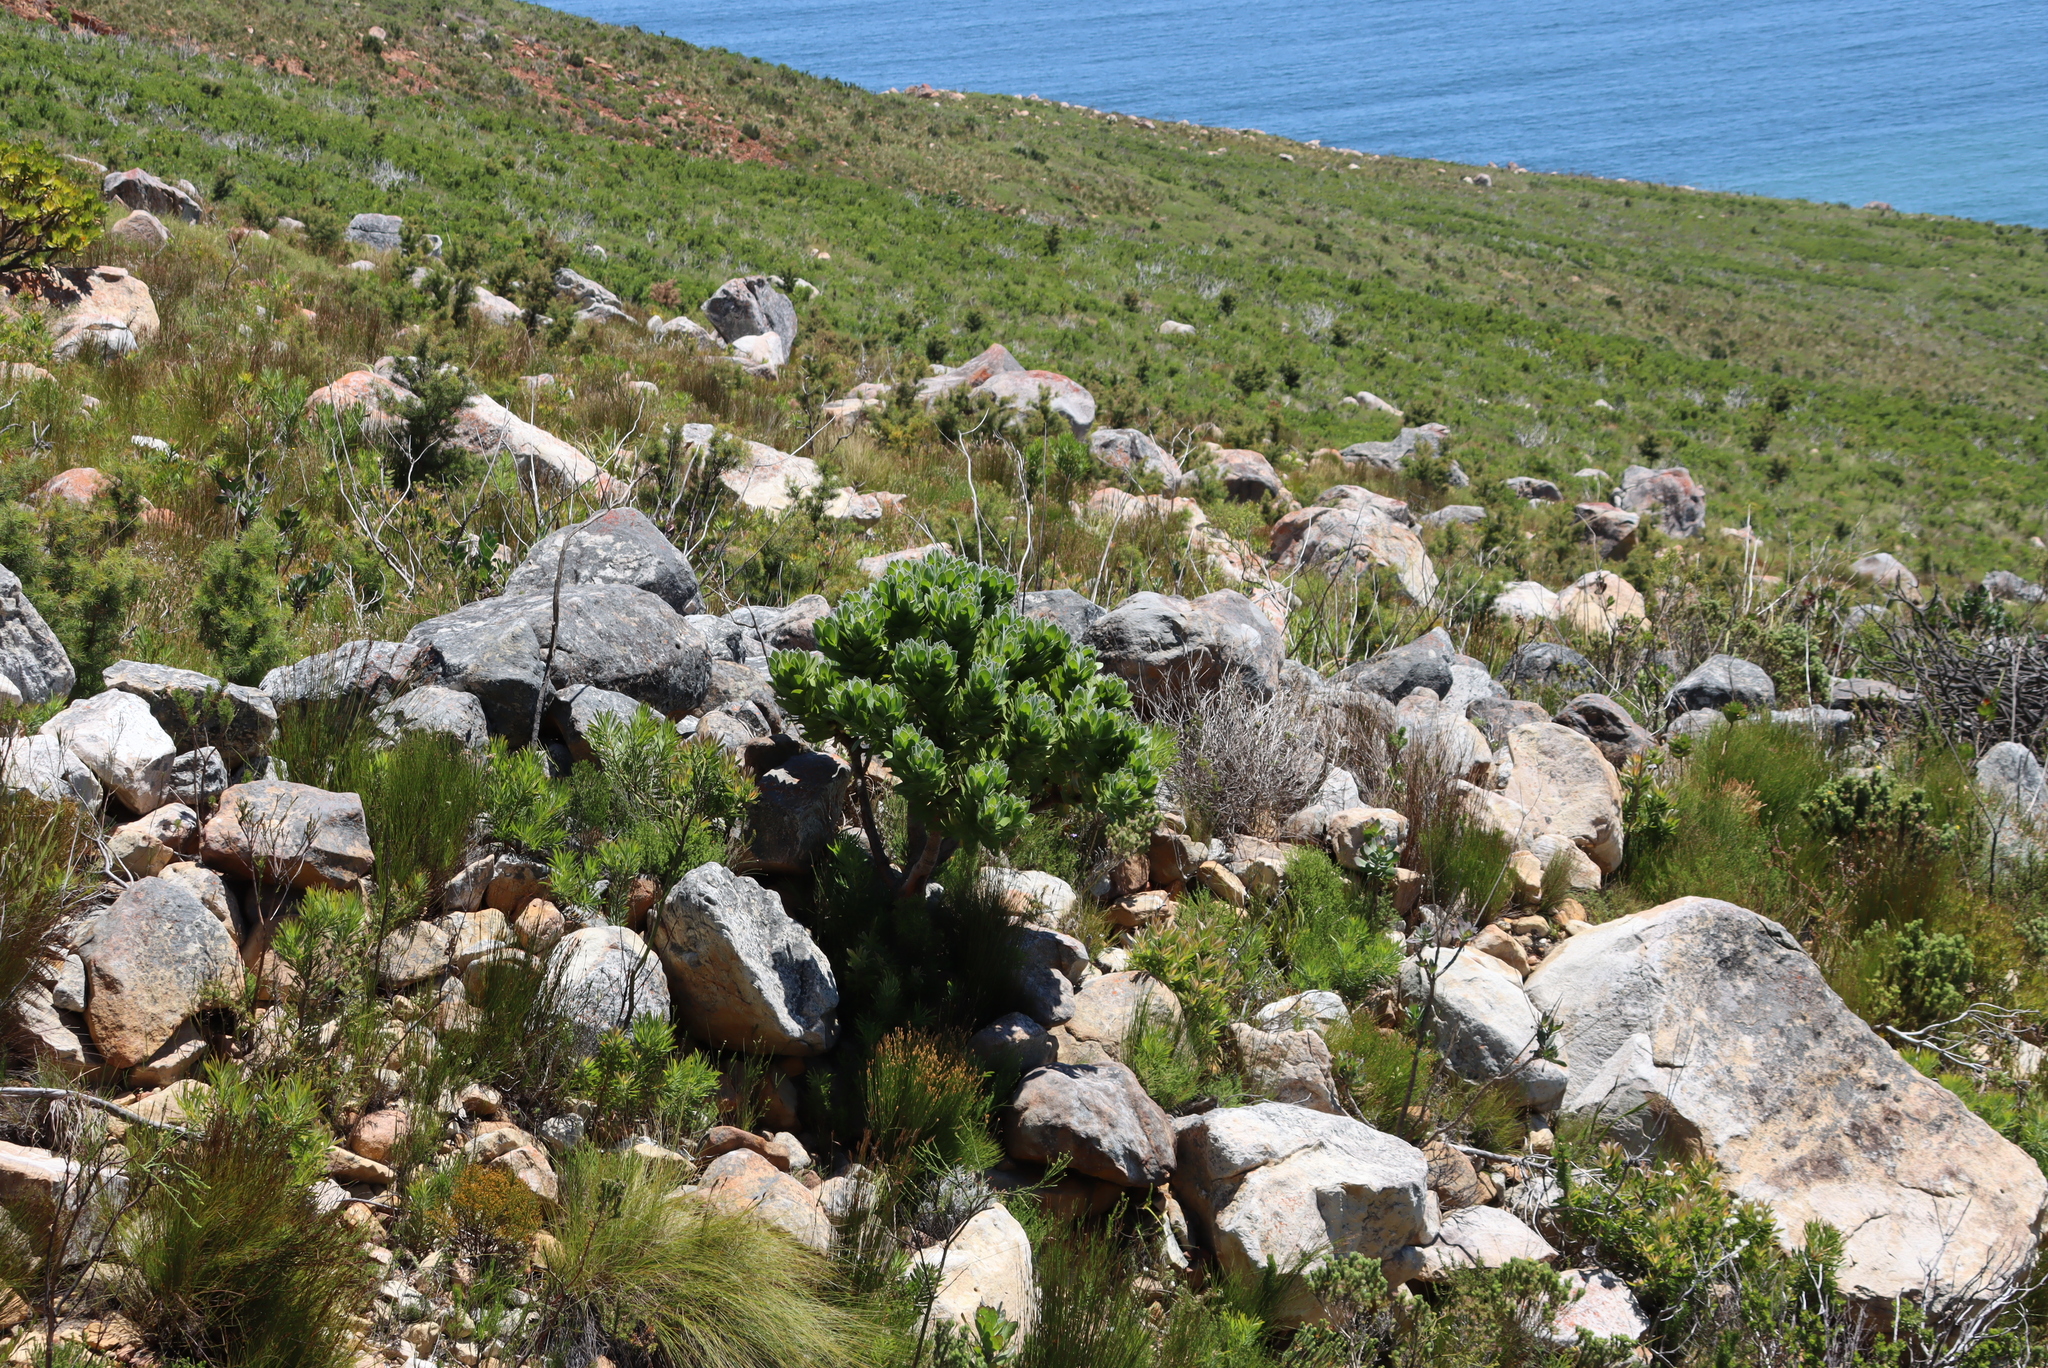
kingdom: Plantae
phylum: Tracheophyta
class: Magnoliopsida
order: Proteales
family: Proteaceae
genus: Leucospermum
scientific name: Leucospermum conocarpodendron
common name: Tree pincushion
